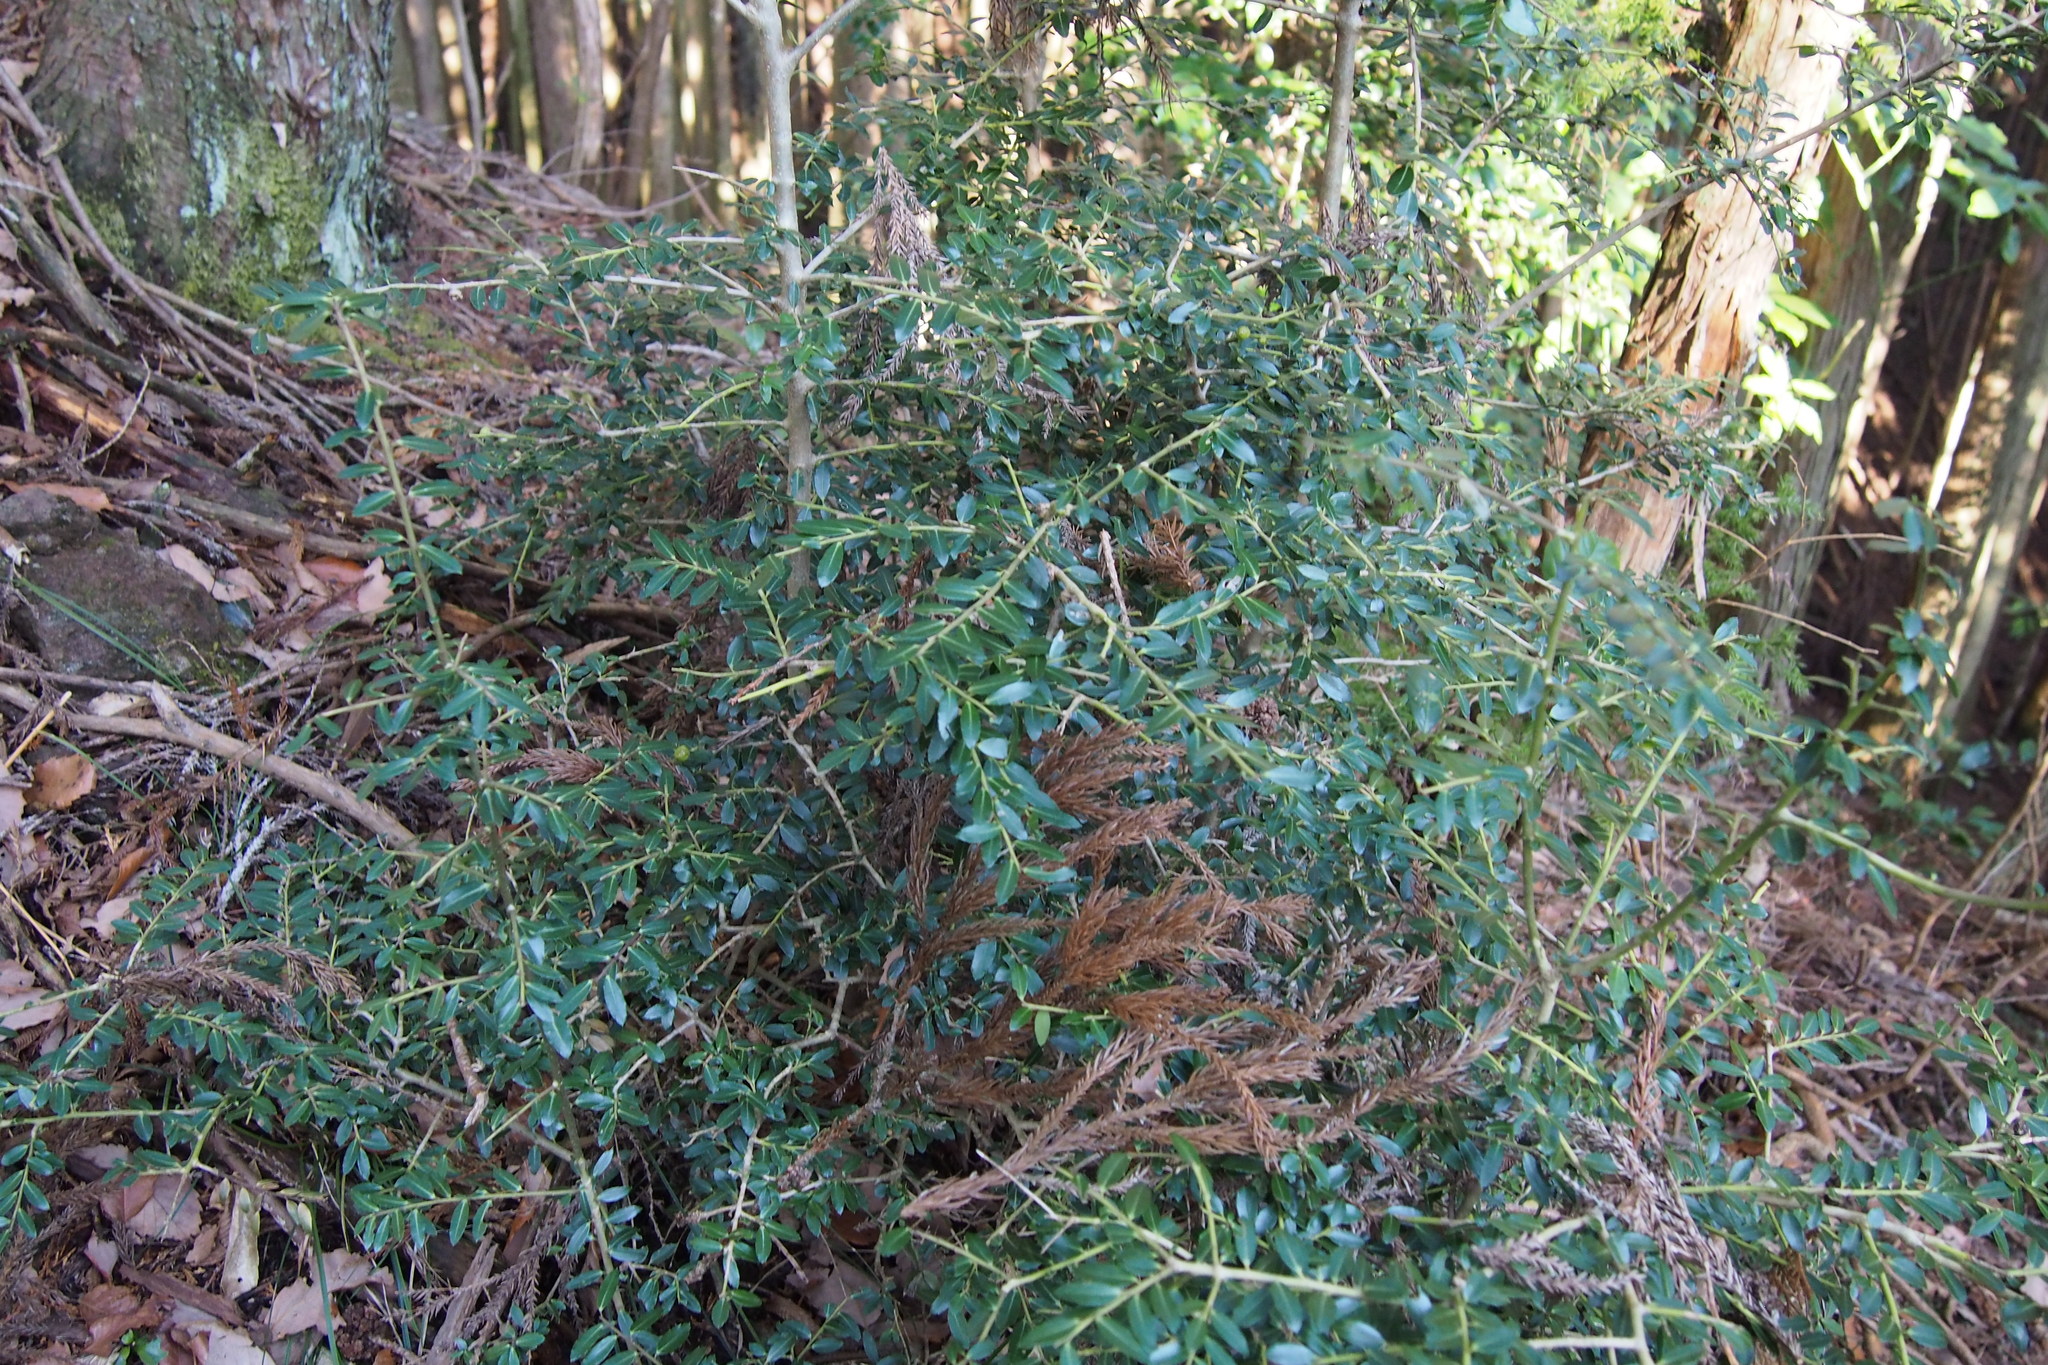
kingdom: Plantae
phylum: Tracheophyta
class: Magnoliopsida
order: Aquifoliales
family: Aquifoliaceae
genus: Ilex
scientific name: Ilex crenata
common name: Japanese holly
